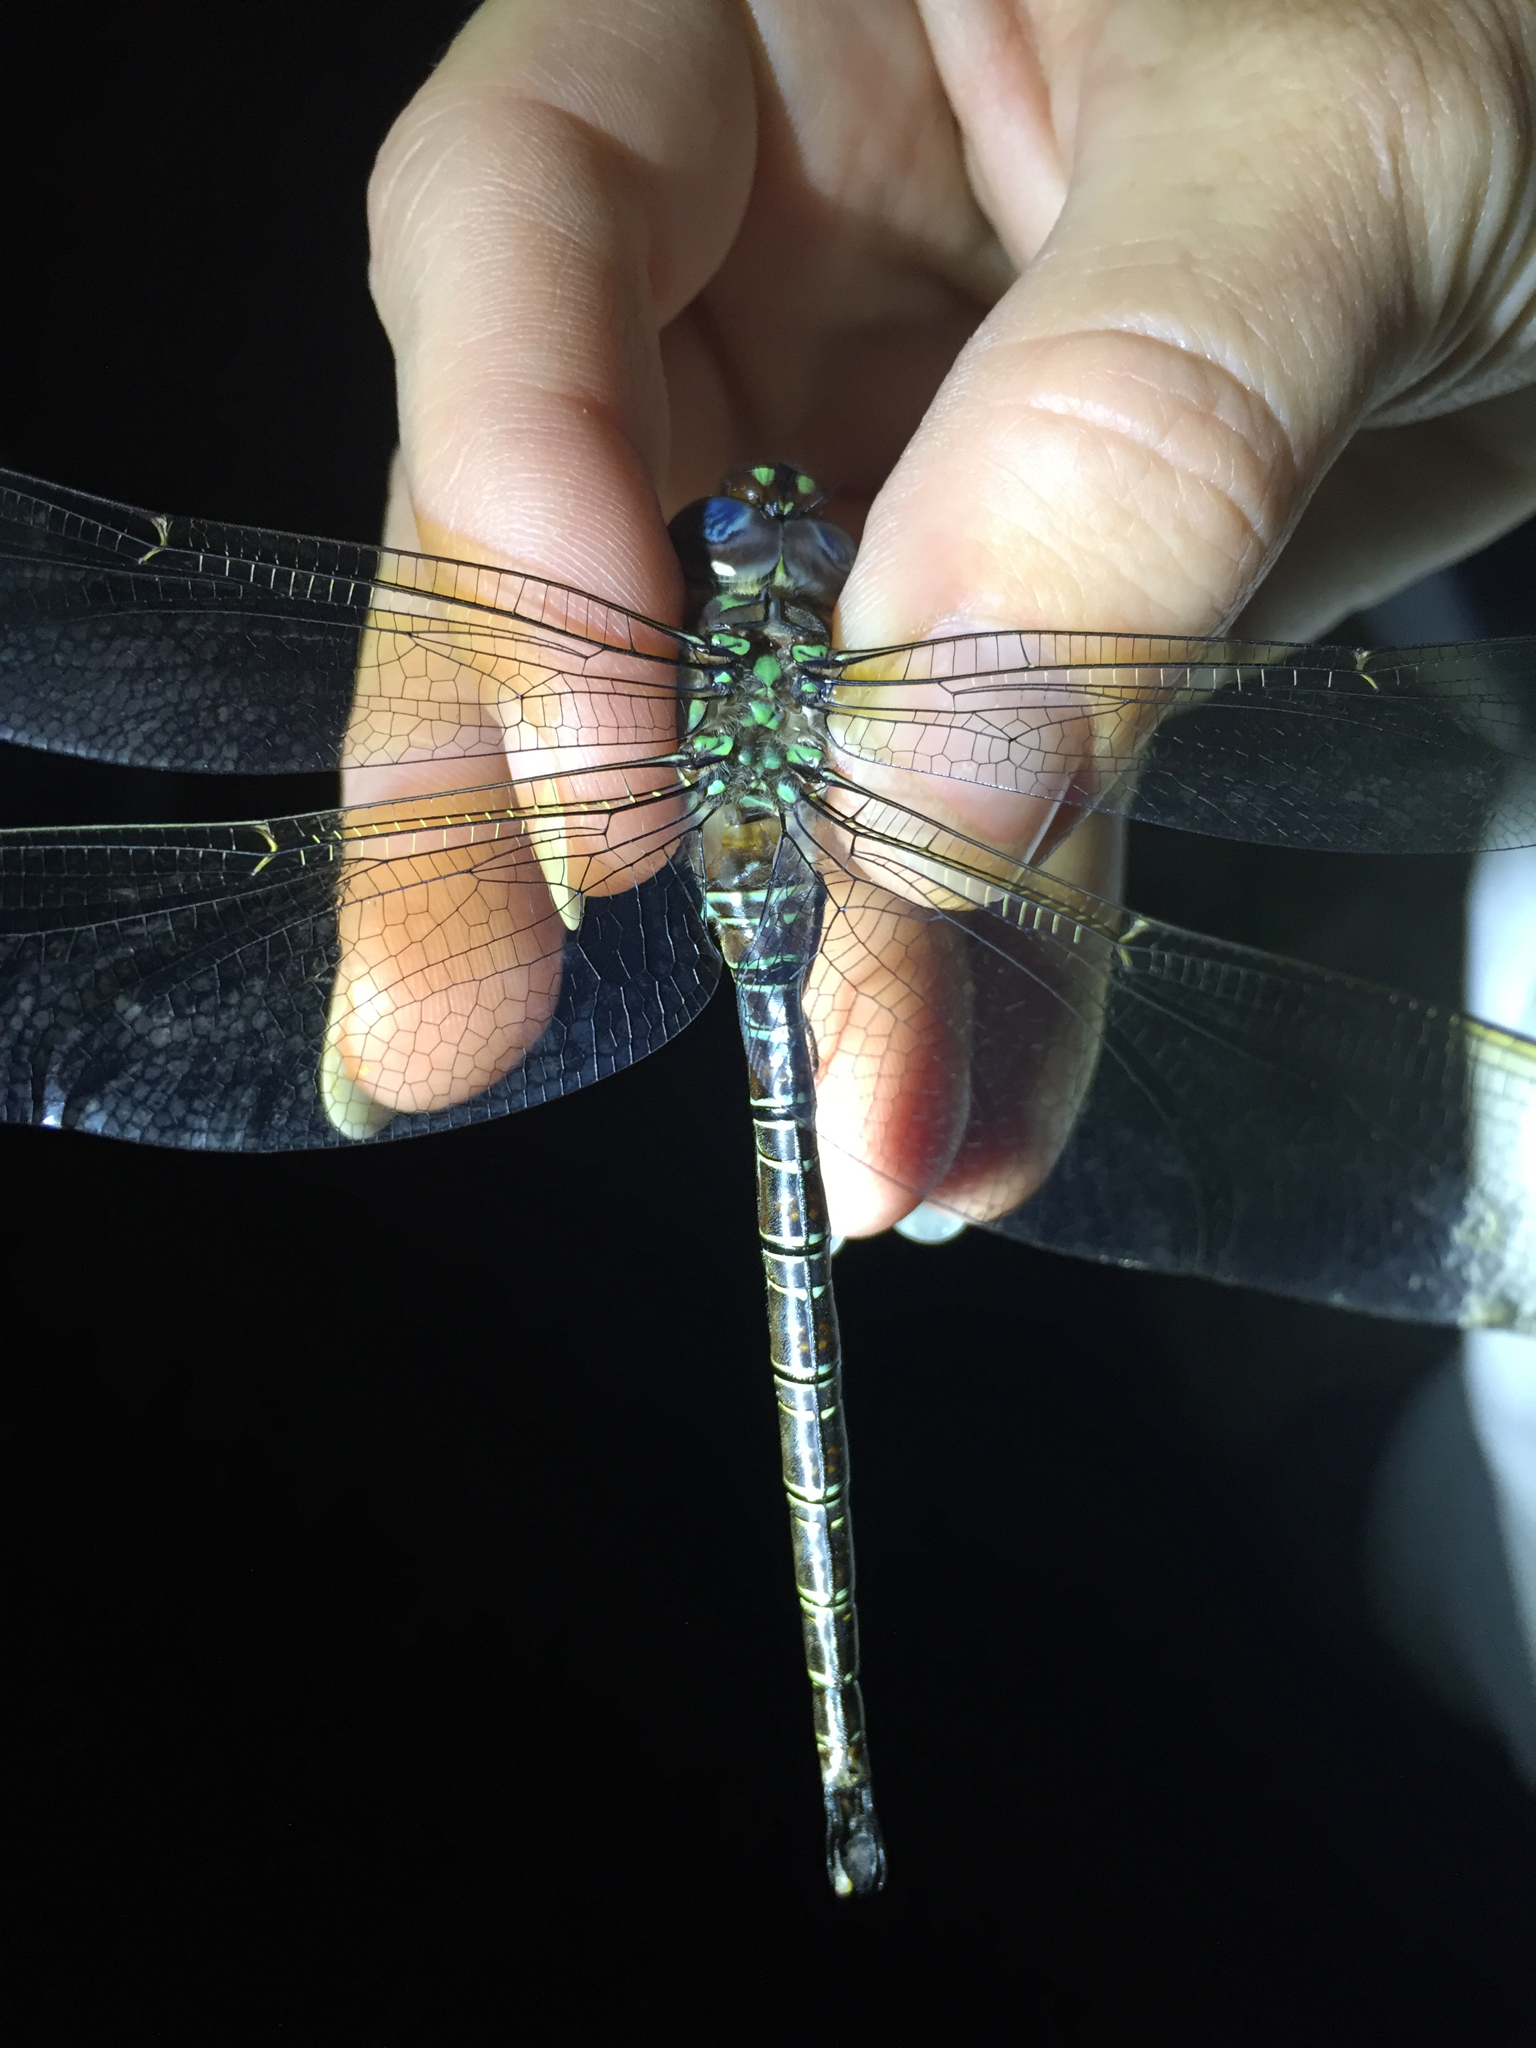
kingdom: Animalia
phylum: Arthropoda
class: Insecta
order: Odonata
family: Aeshnidae
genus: Epiaeschna
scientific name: Epiaeschna heros
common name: Swamp darner
